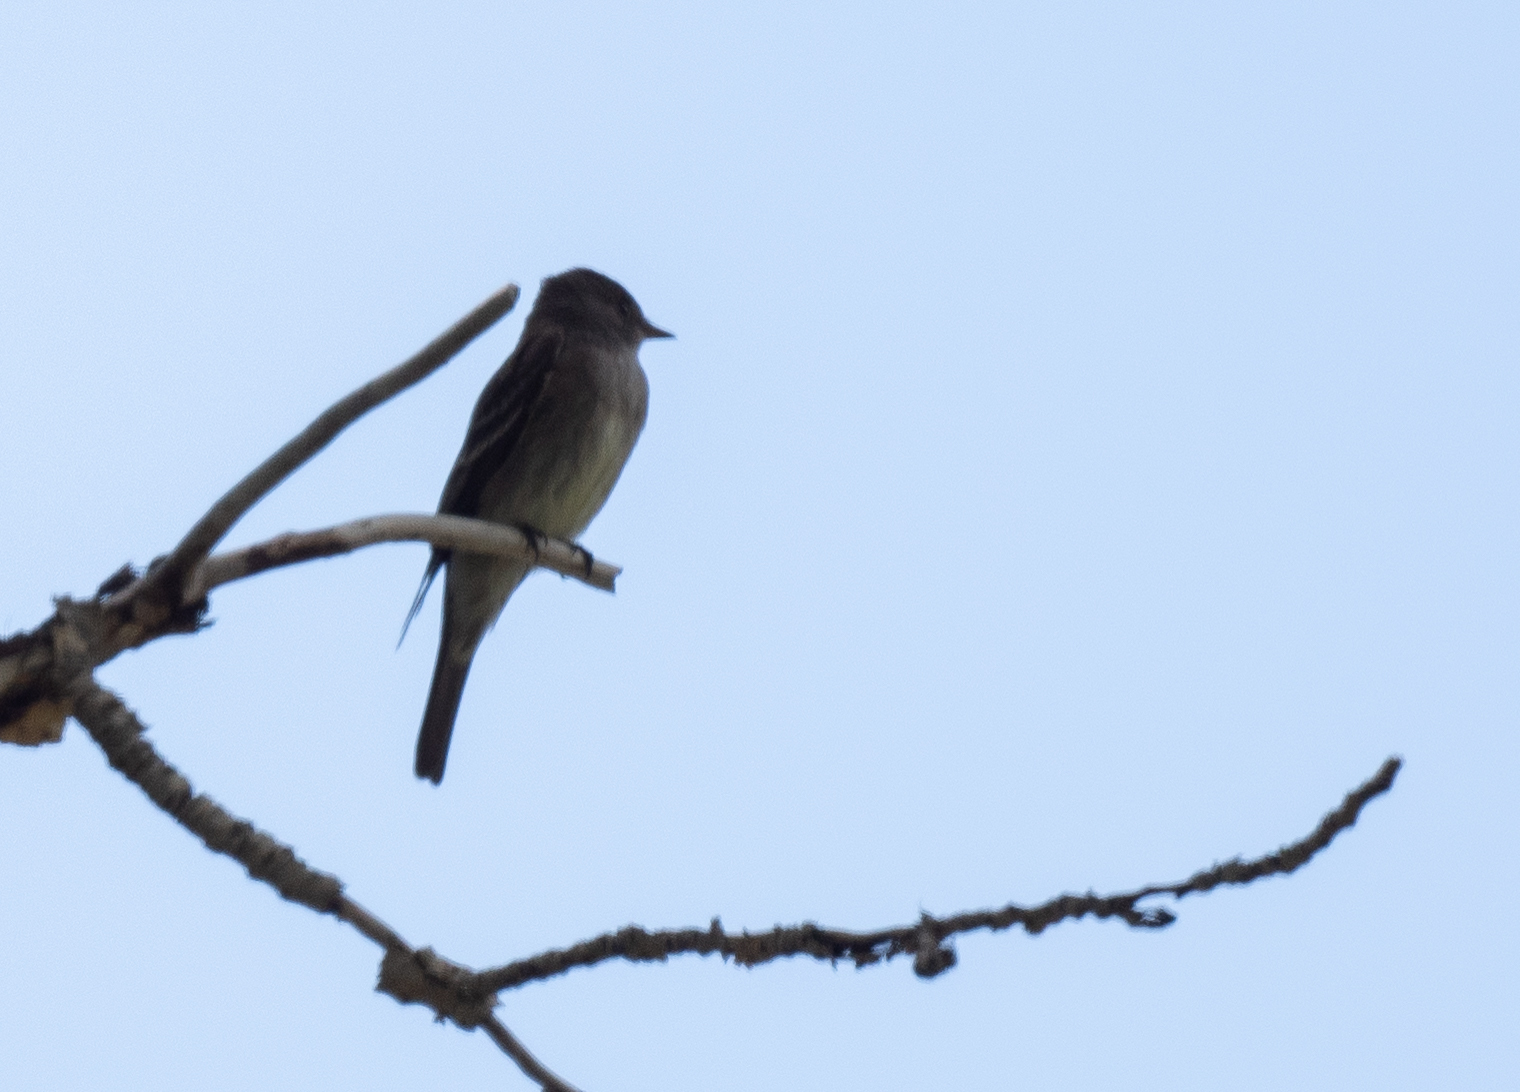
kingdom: Animalia
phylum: Chordata
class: Aves
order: Passeriformes
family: Tyrannidae
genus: Contopus
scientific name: Contopus sordidulus
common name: Western wood-pewee
